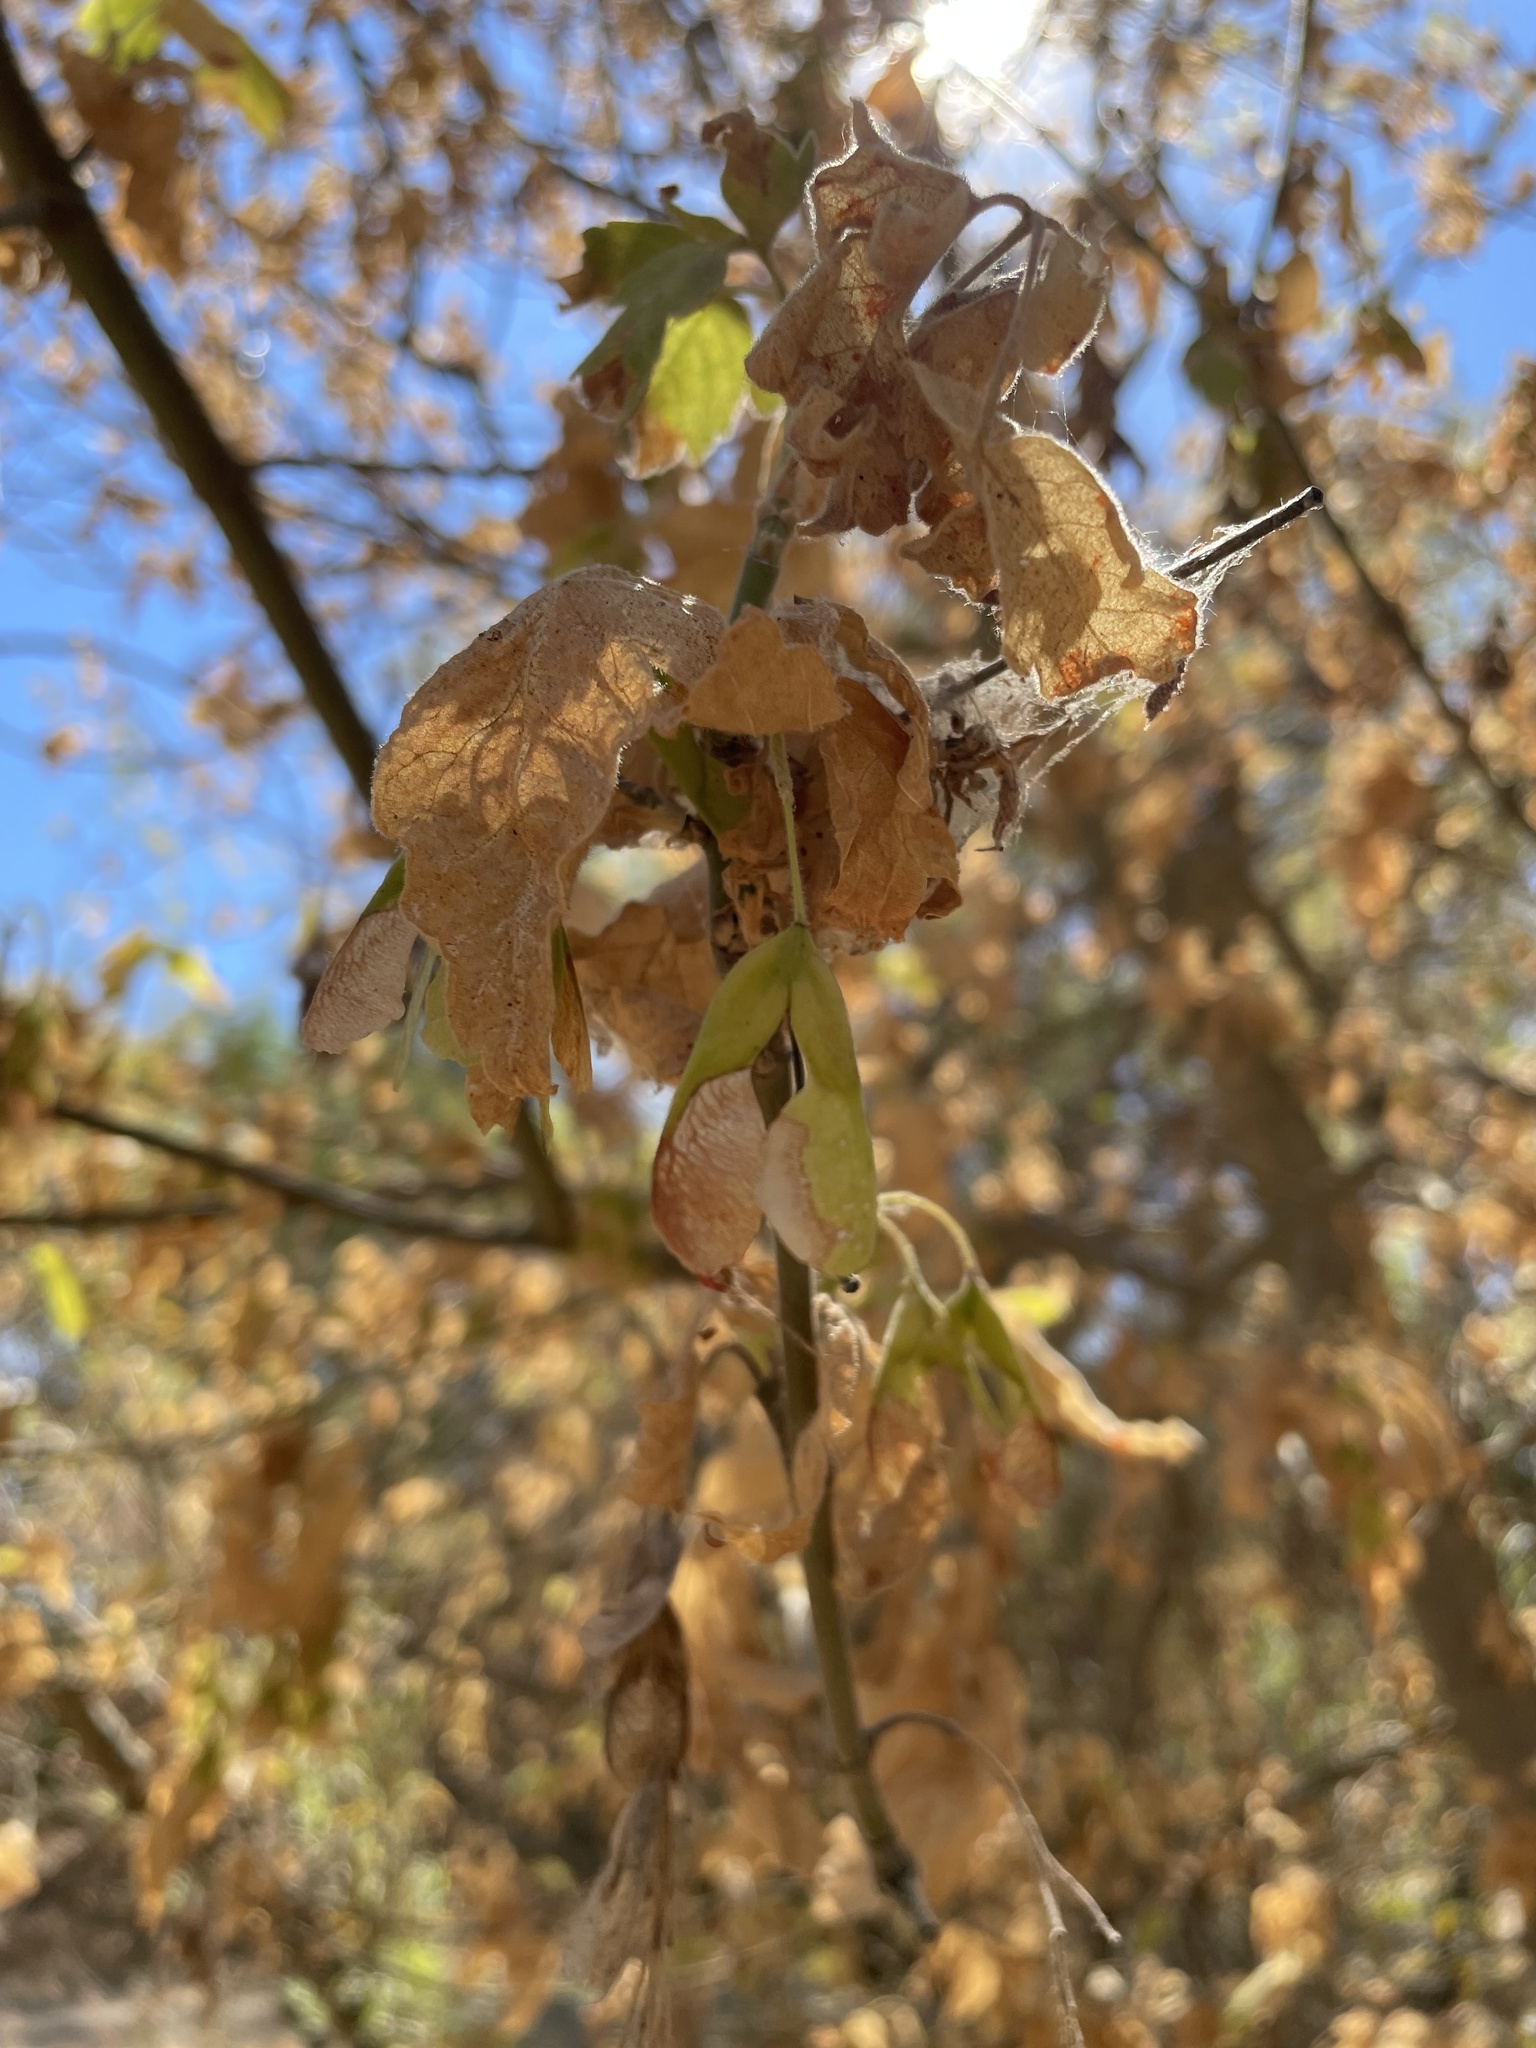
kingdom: Plantae
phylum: Tracheophyta
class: Magnoliopsida
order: Sapindales
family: Sapindaceae
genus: Acer
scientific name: Acer negundo
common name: Ashleaf maple
